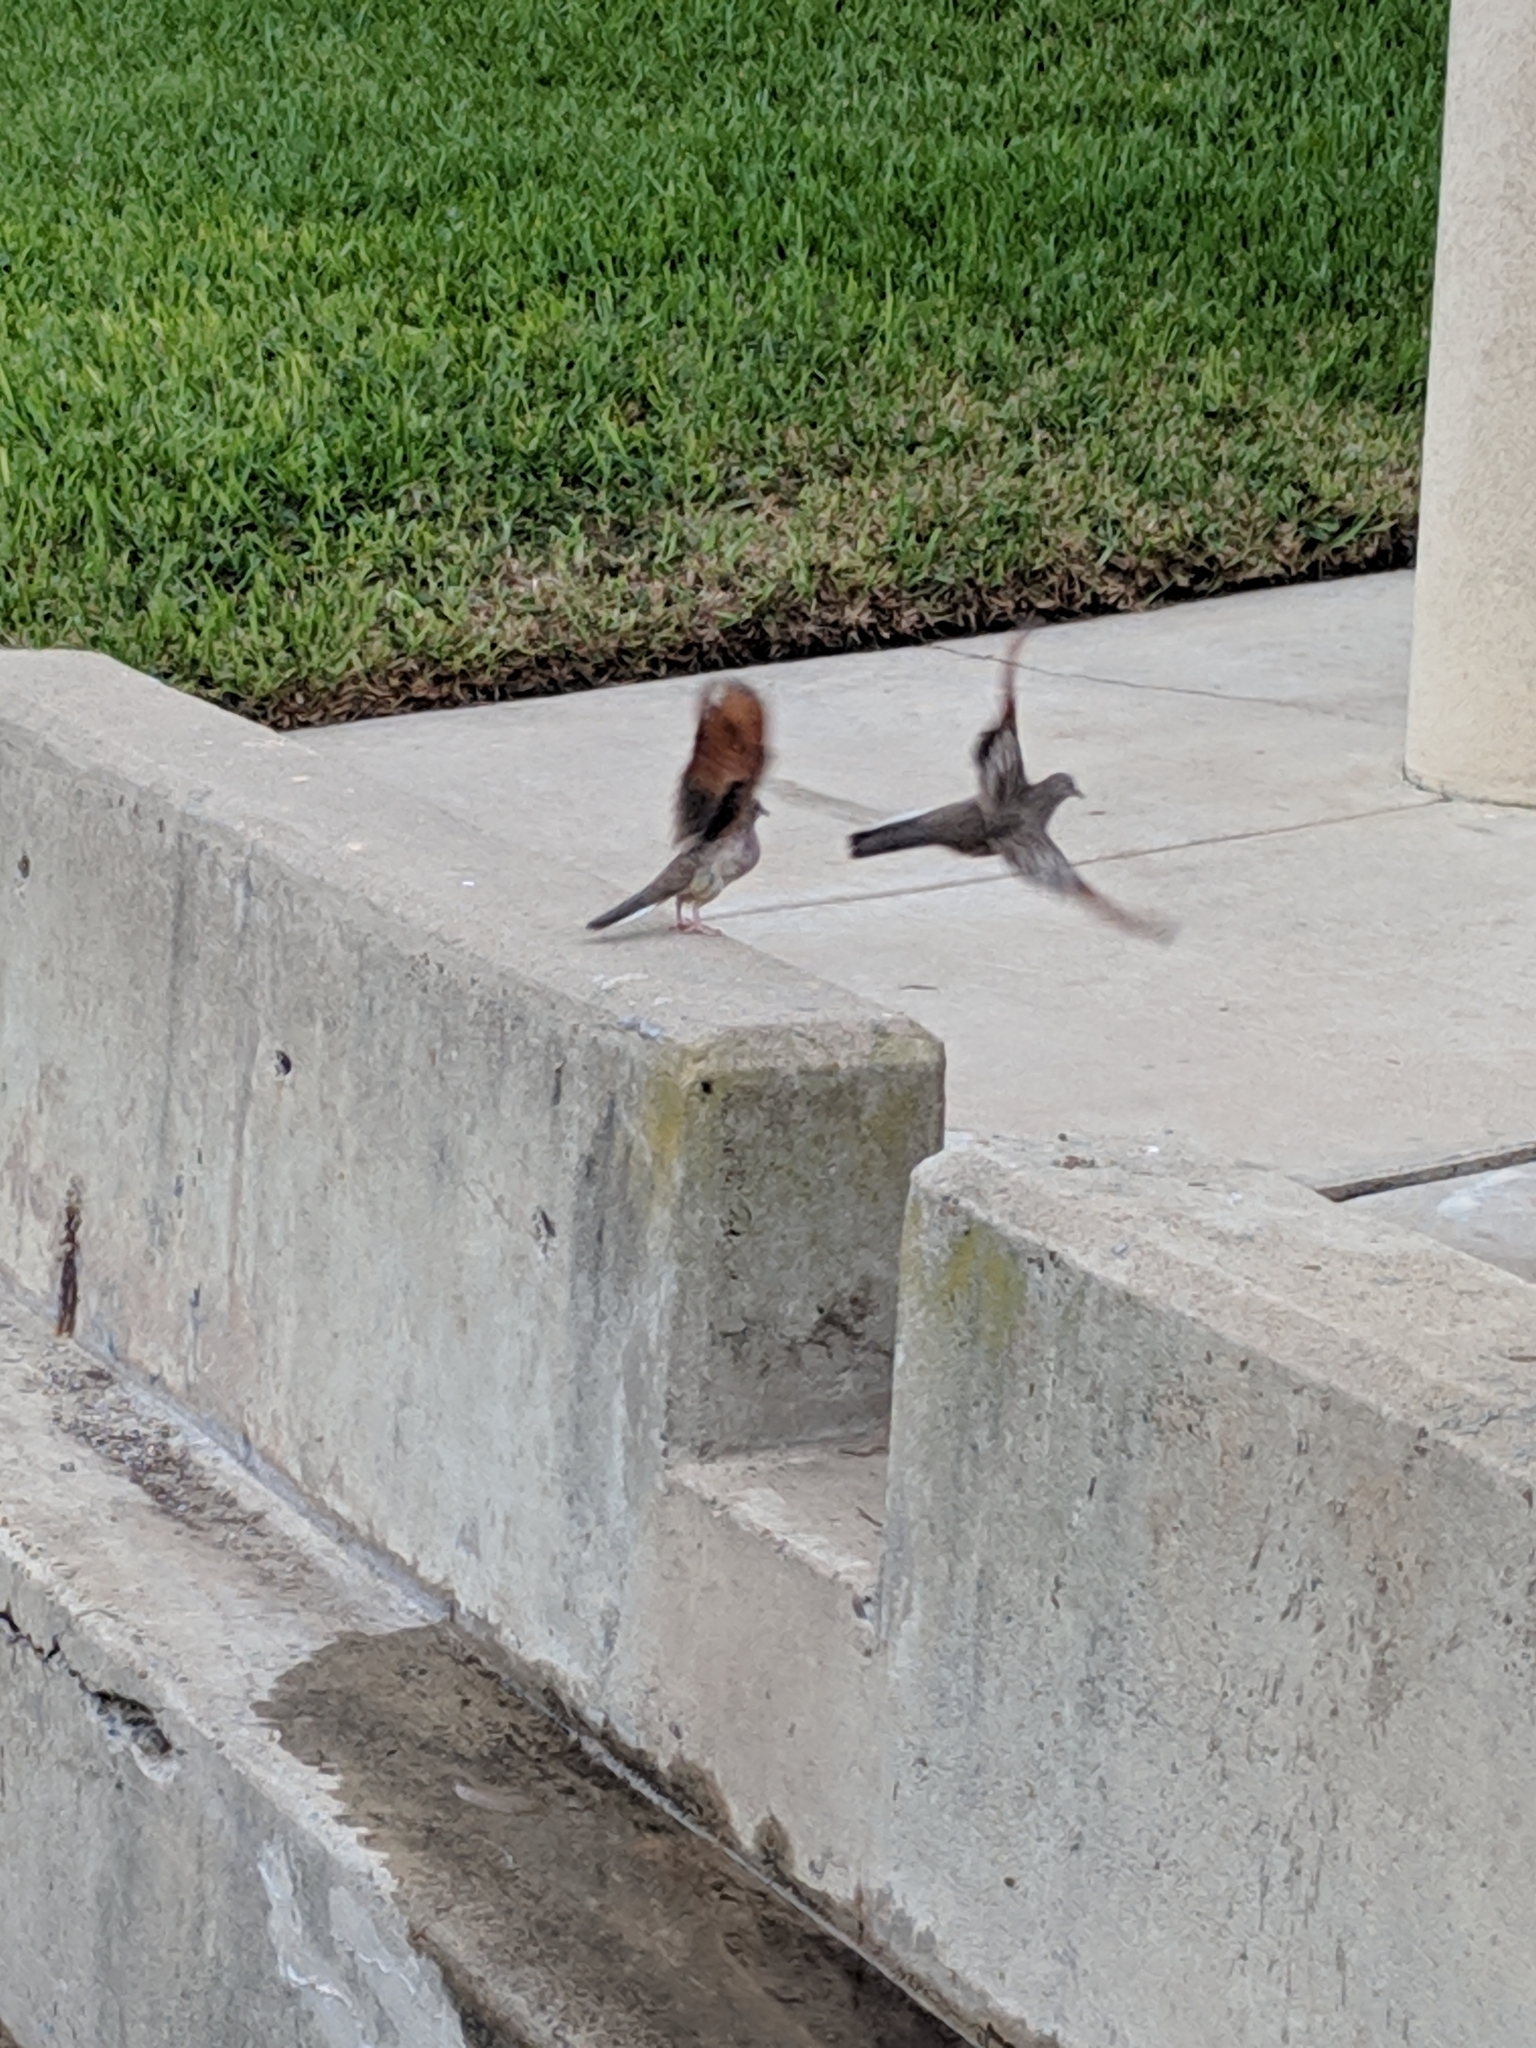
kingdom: Animalia
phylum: Chordata
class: Aves
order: Columbiformes
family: Columbidae
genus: Columbina
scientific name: Columbina inca
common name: Inca dove
